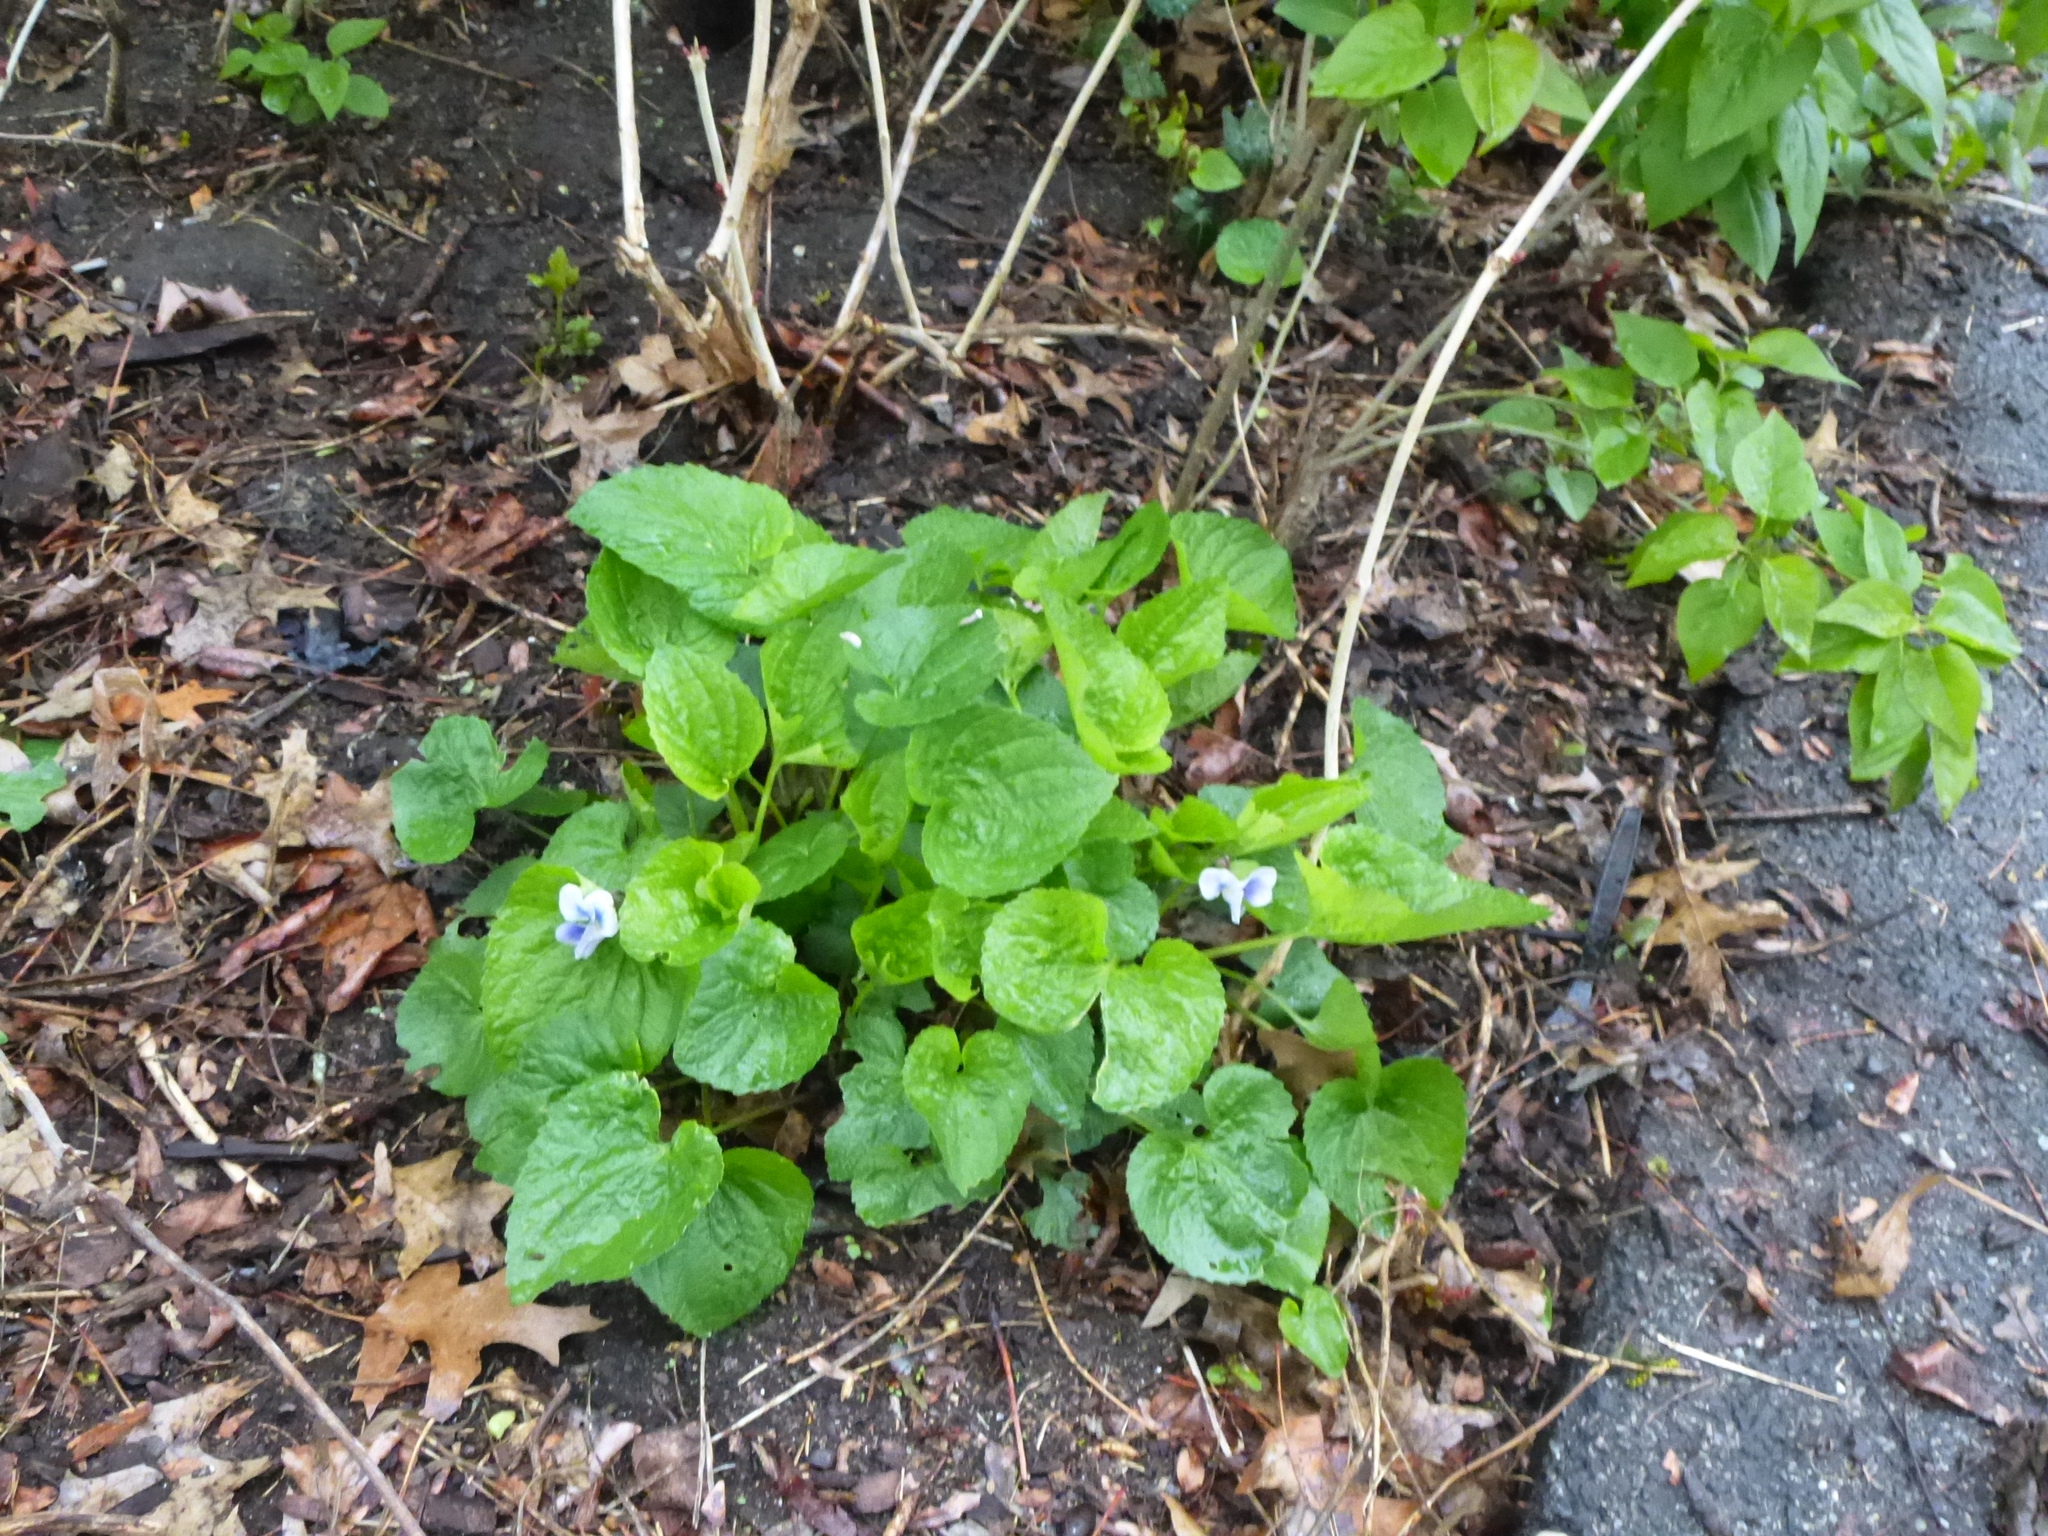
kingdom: Plantae
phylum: Tracheophyta
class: Magnoliopsida
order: Malpighiales
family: Violaceae
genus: Viola
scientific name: Viola sororia
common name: Dooryard violet
